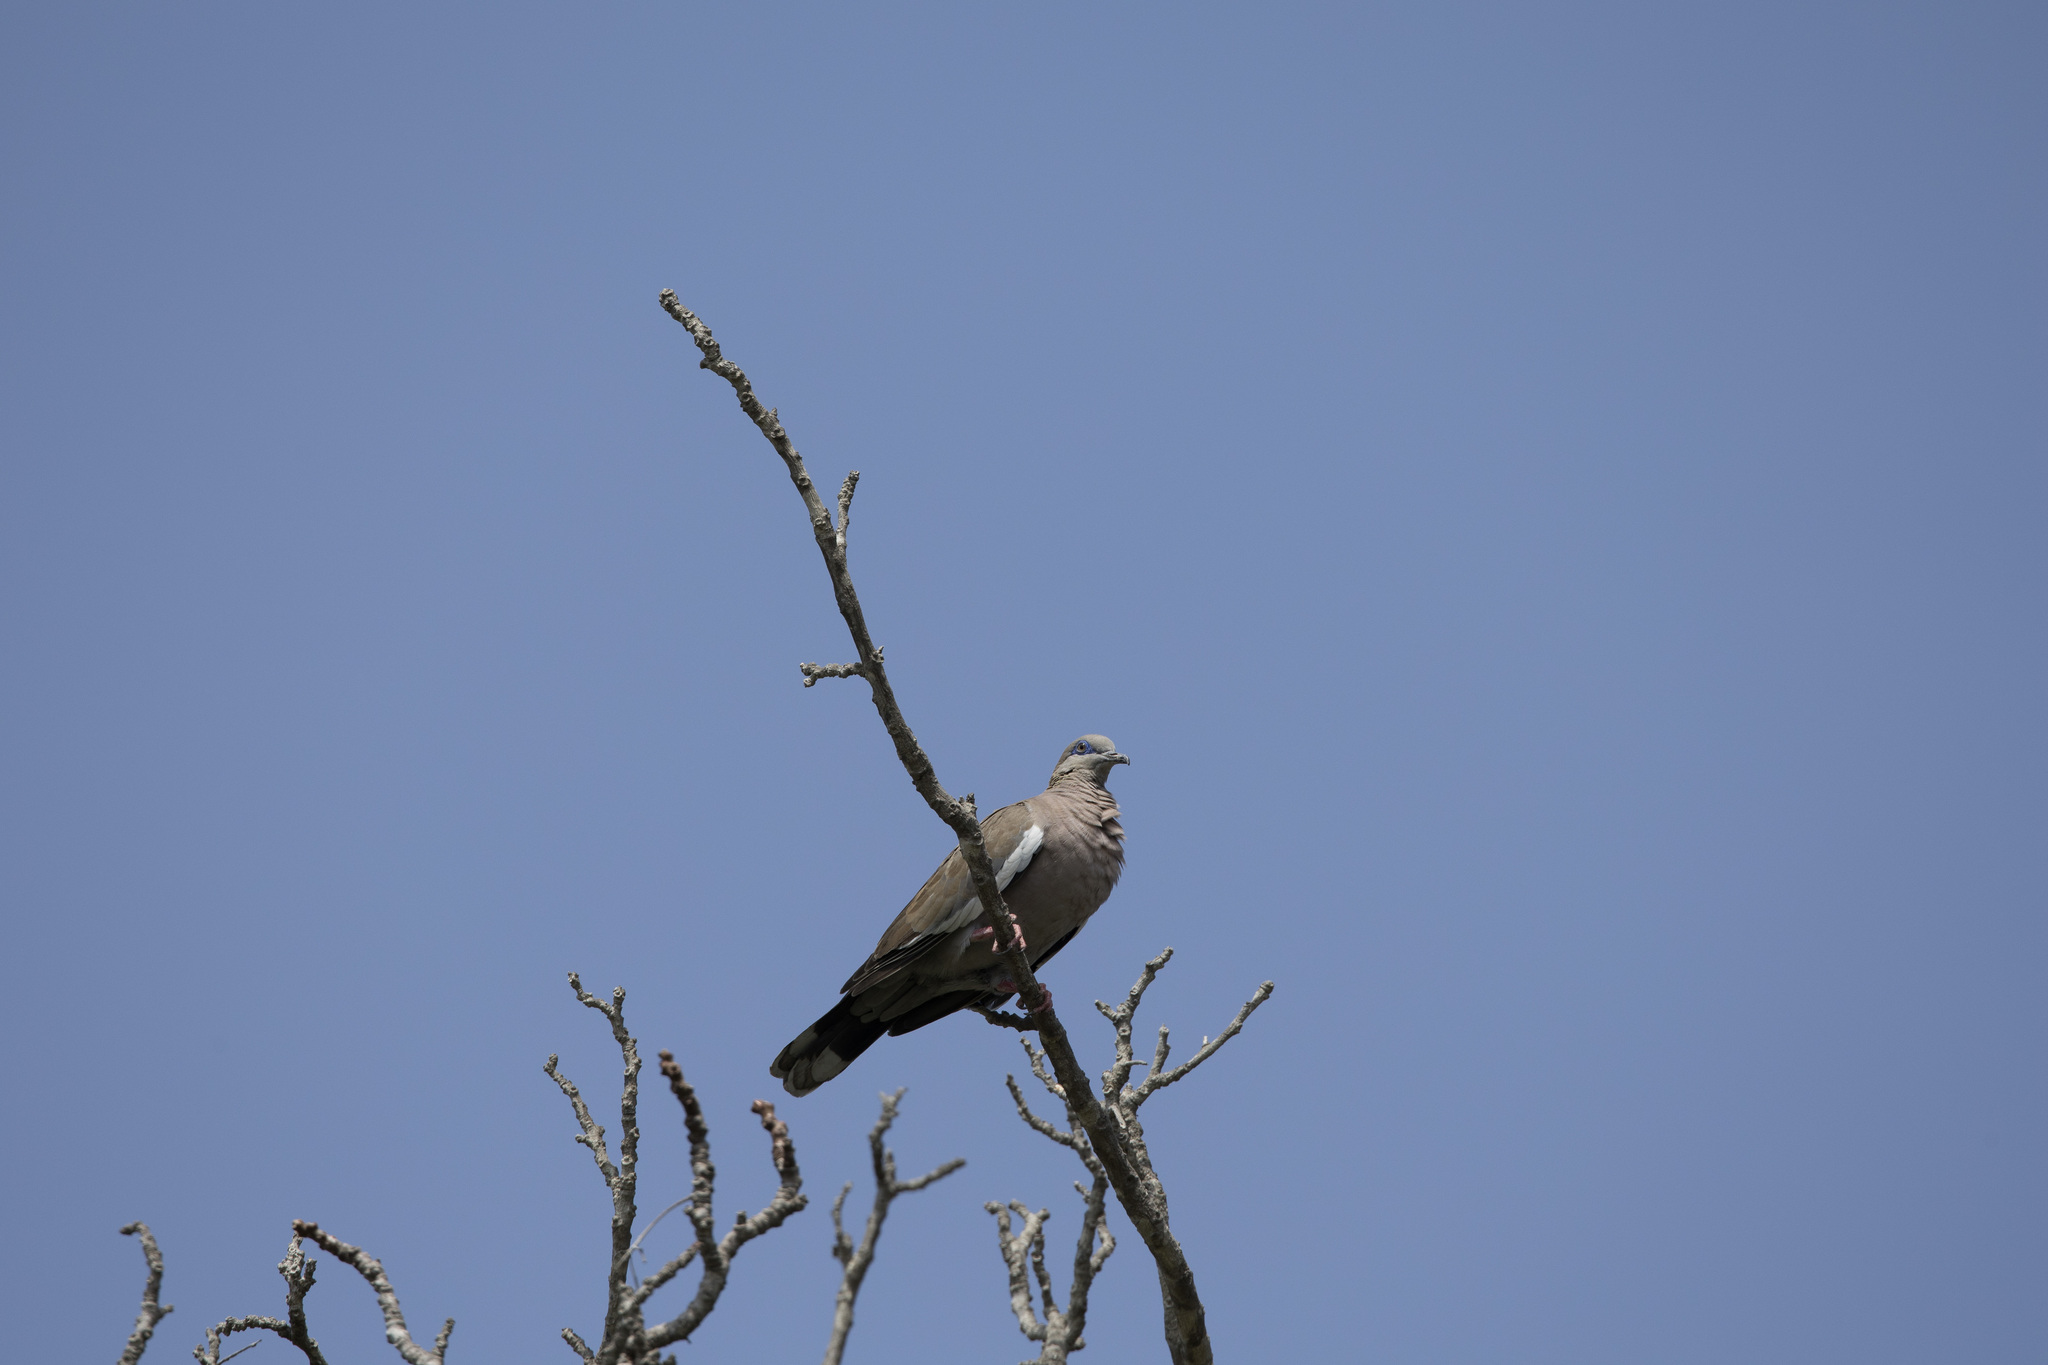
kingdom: Animalia
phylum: Chordata
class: Aves
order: Columbiformes
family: Columbidae
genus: Zenaida
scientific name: Zenaida meloda
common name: West peruvian dove
